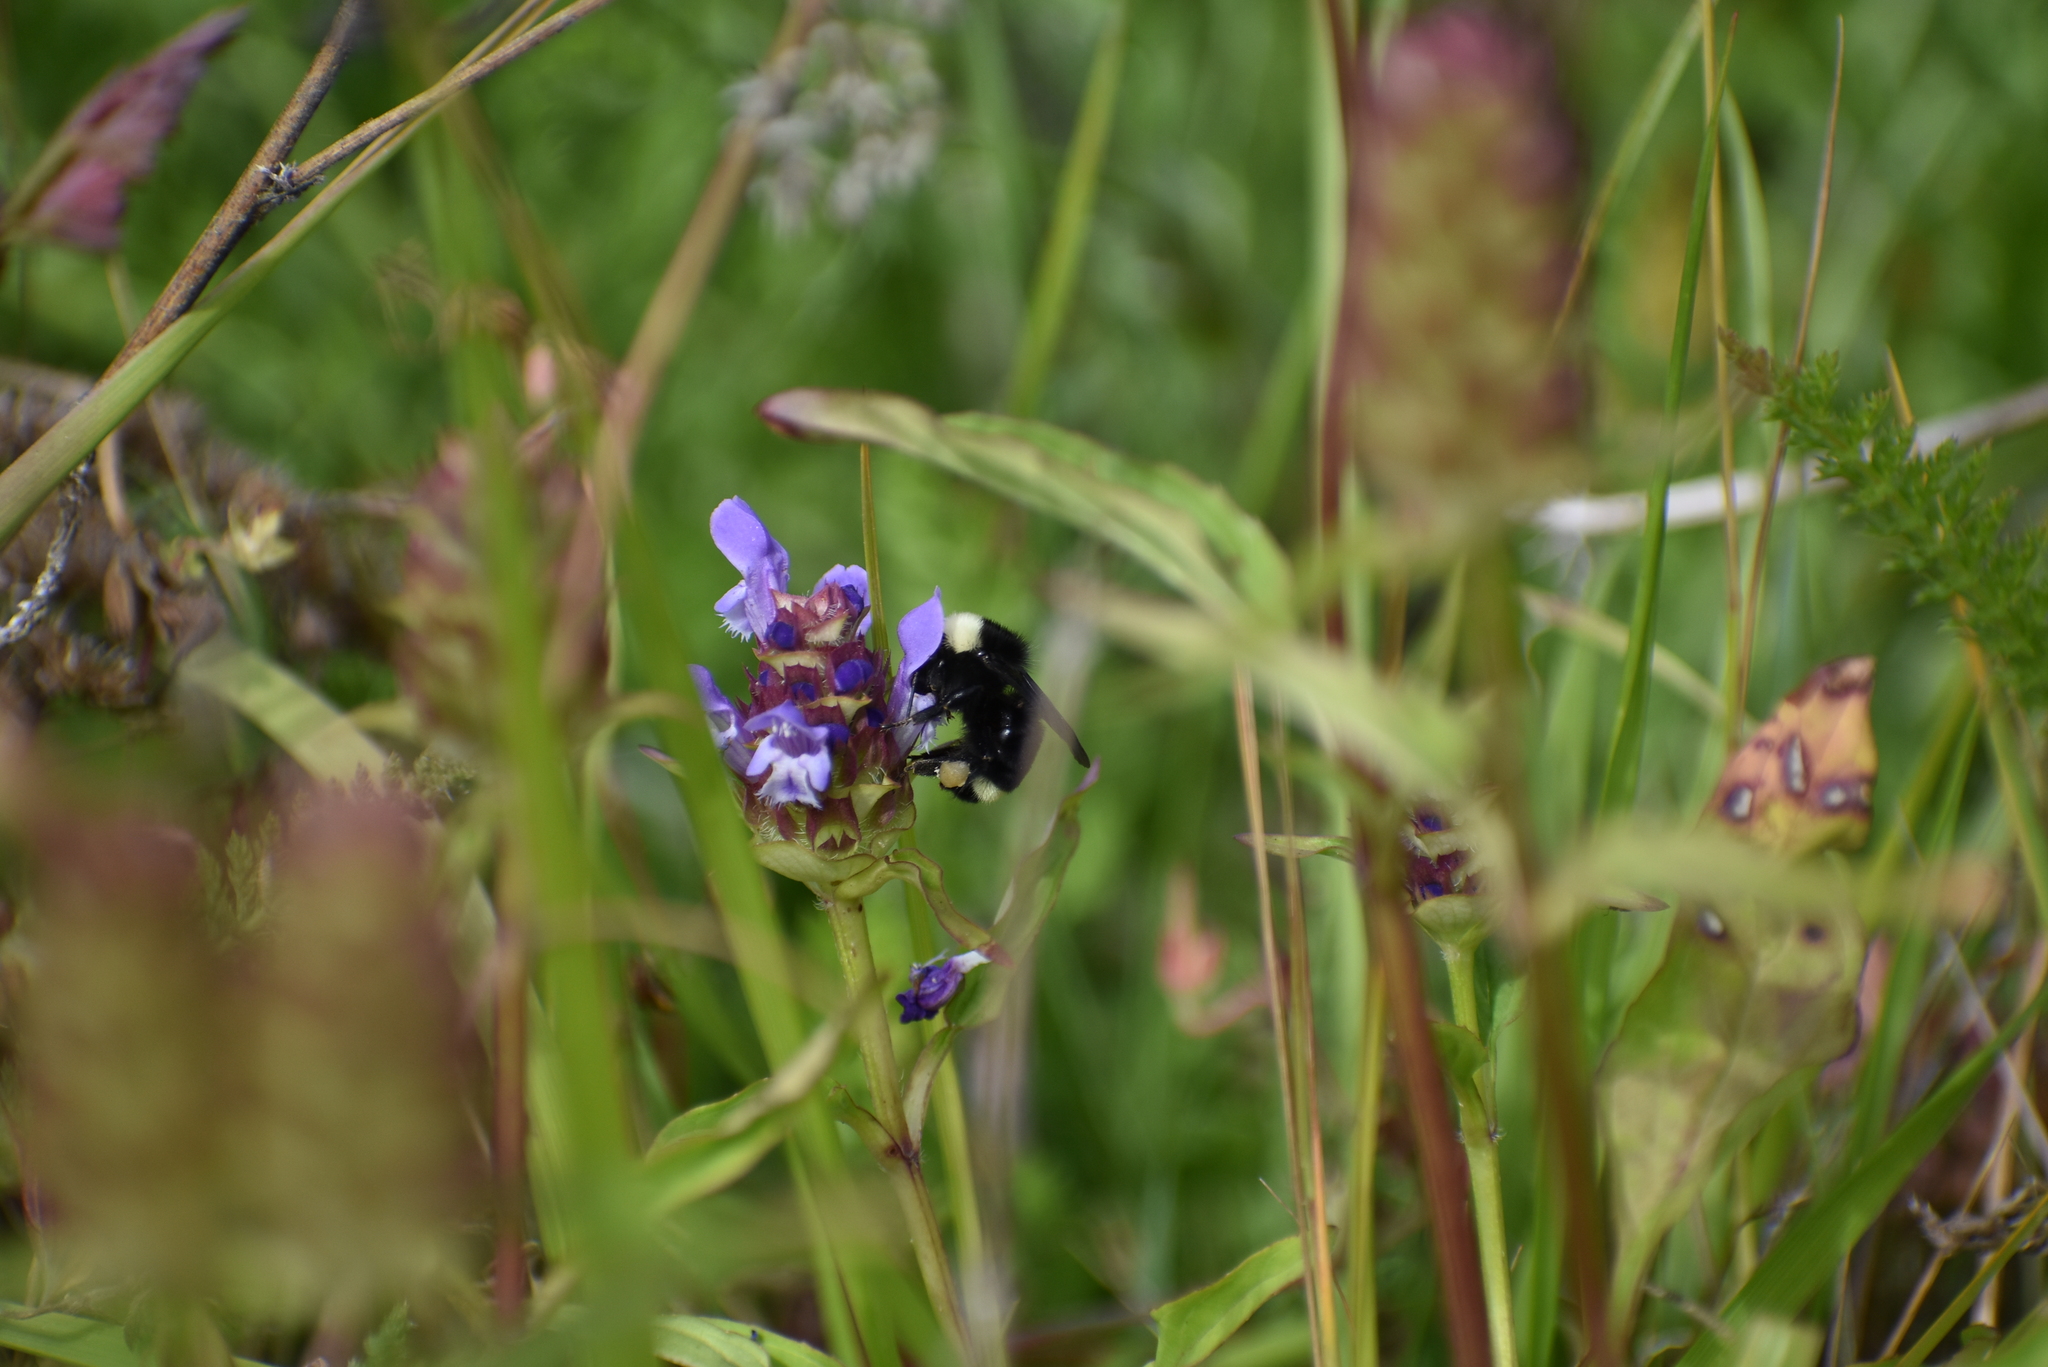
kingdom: Animalia
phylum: Arthropoda
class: Insecta
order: Hymenoptera
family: Apidae
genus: Bombus
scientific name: Bombus vosnesenskii
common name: Vosnesensky bumble bee
